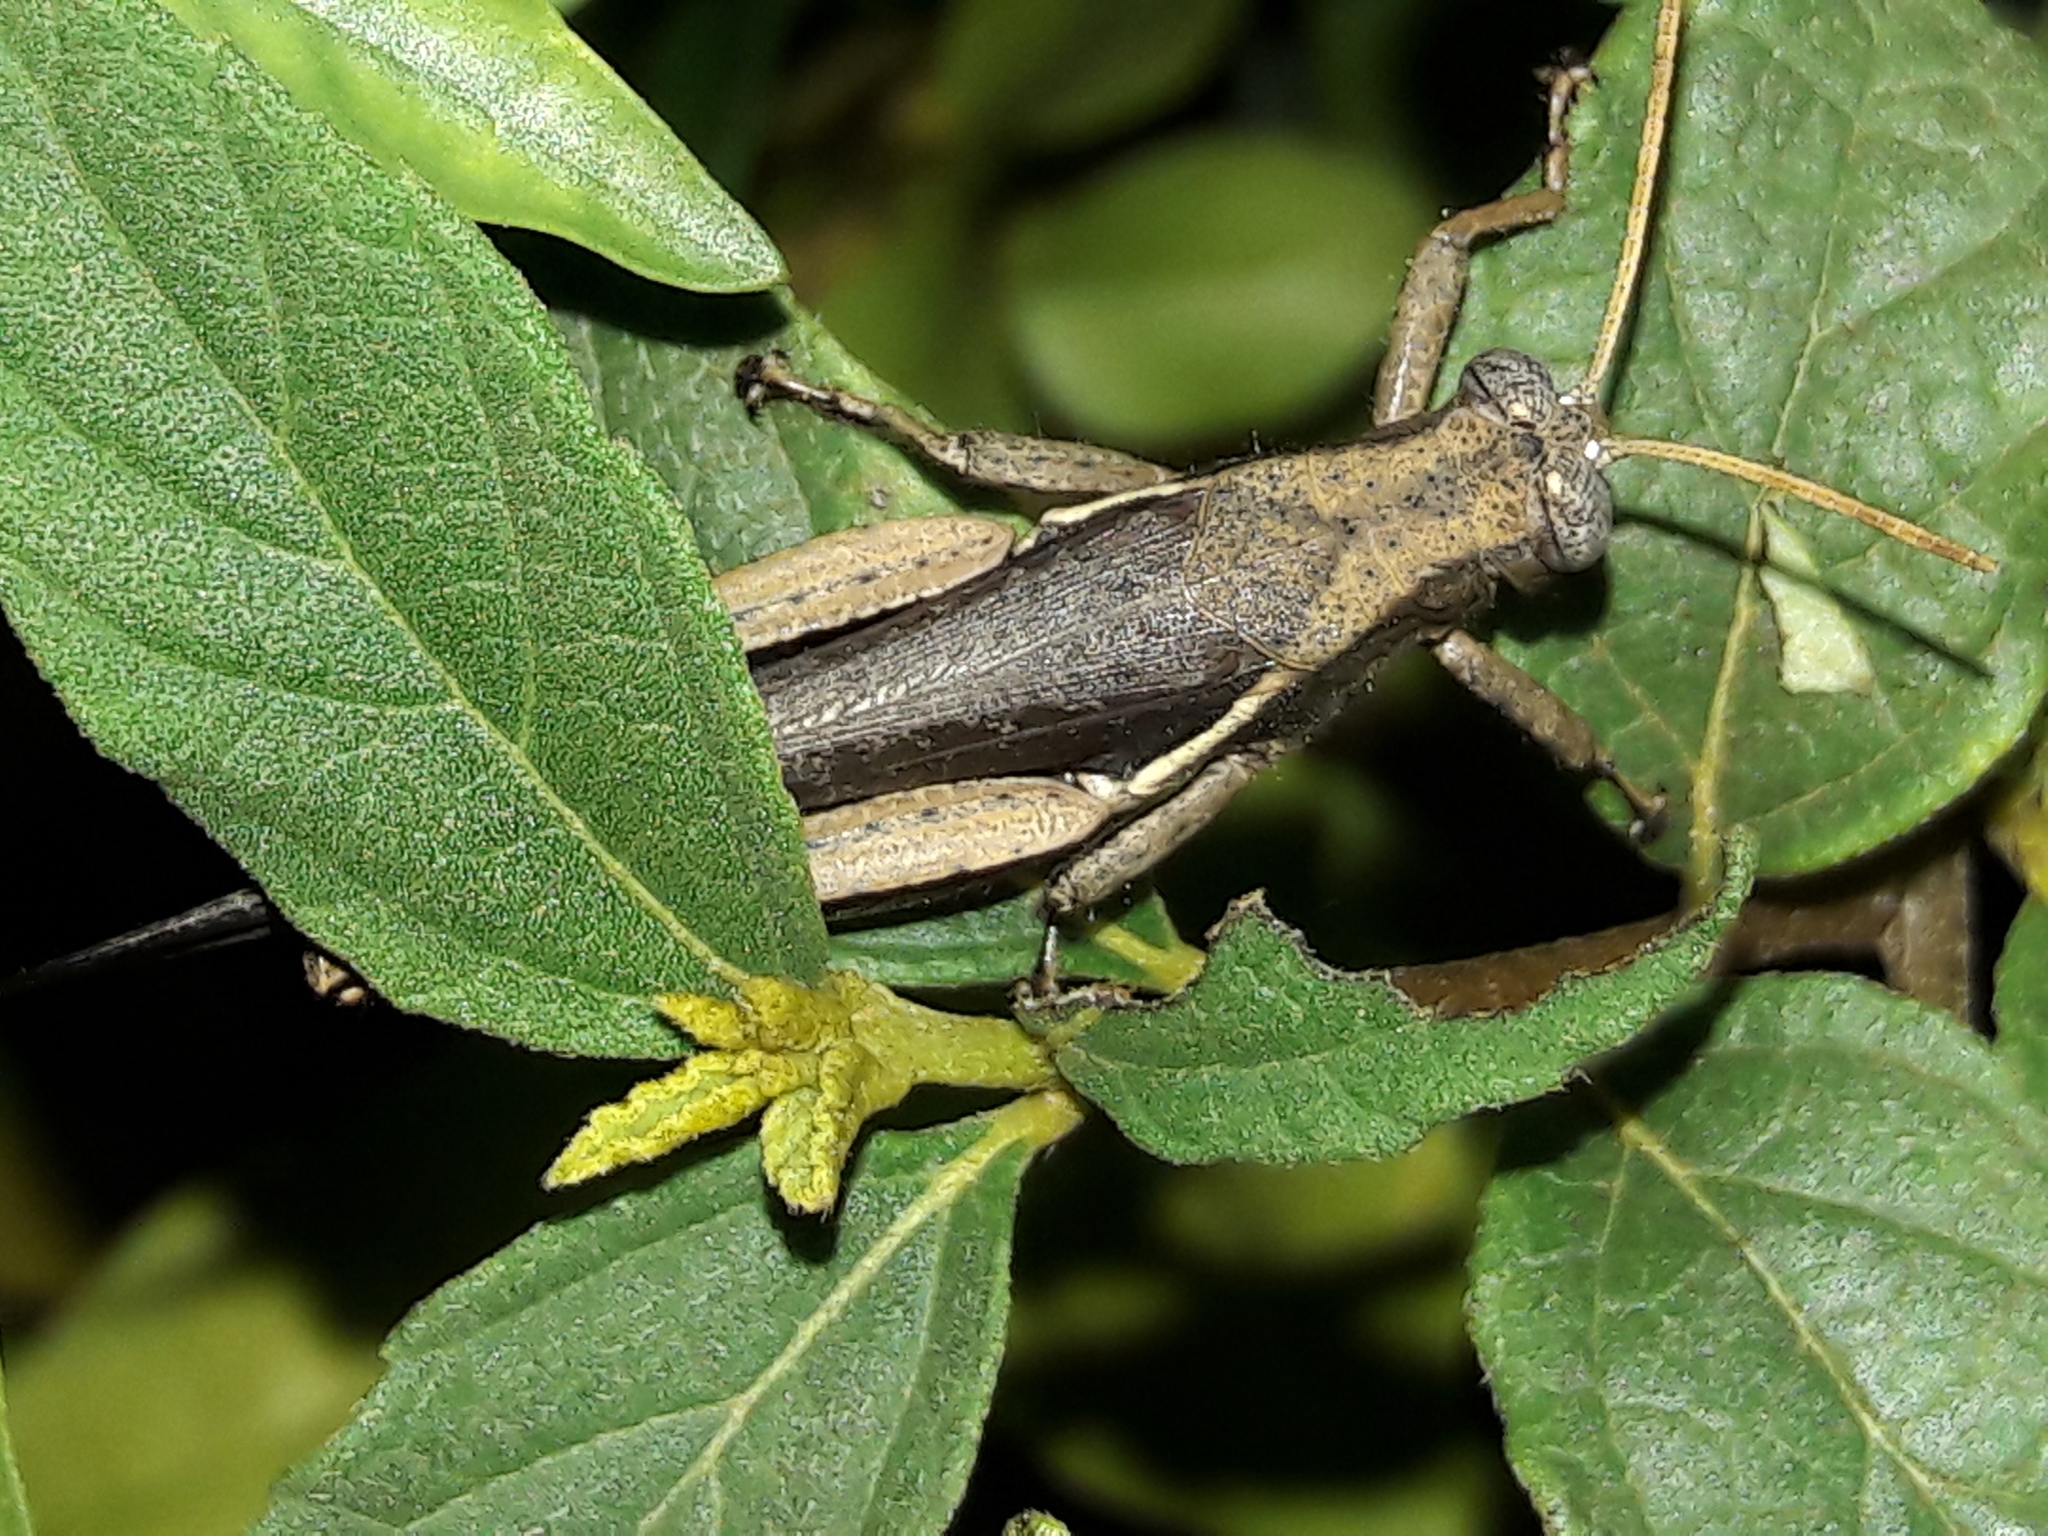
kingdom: Animalia
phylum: Arthropoda
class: Insecta
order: Orthoptera
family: Acrididae
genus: Abracris
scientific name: Abracris flavolineata
